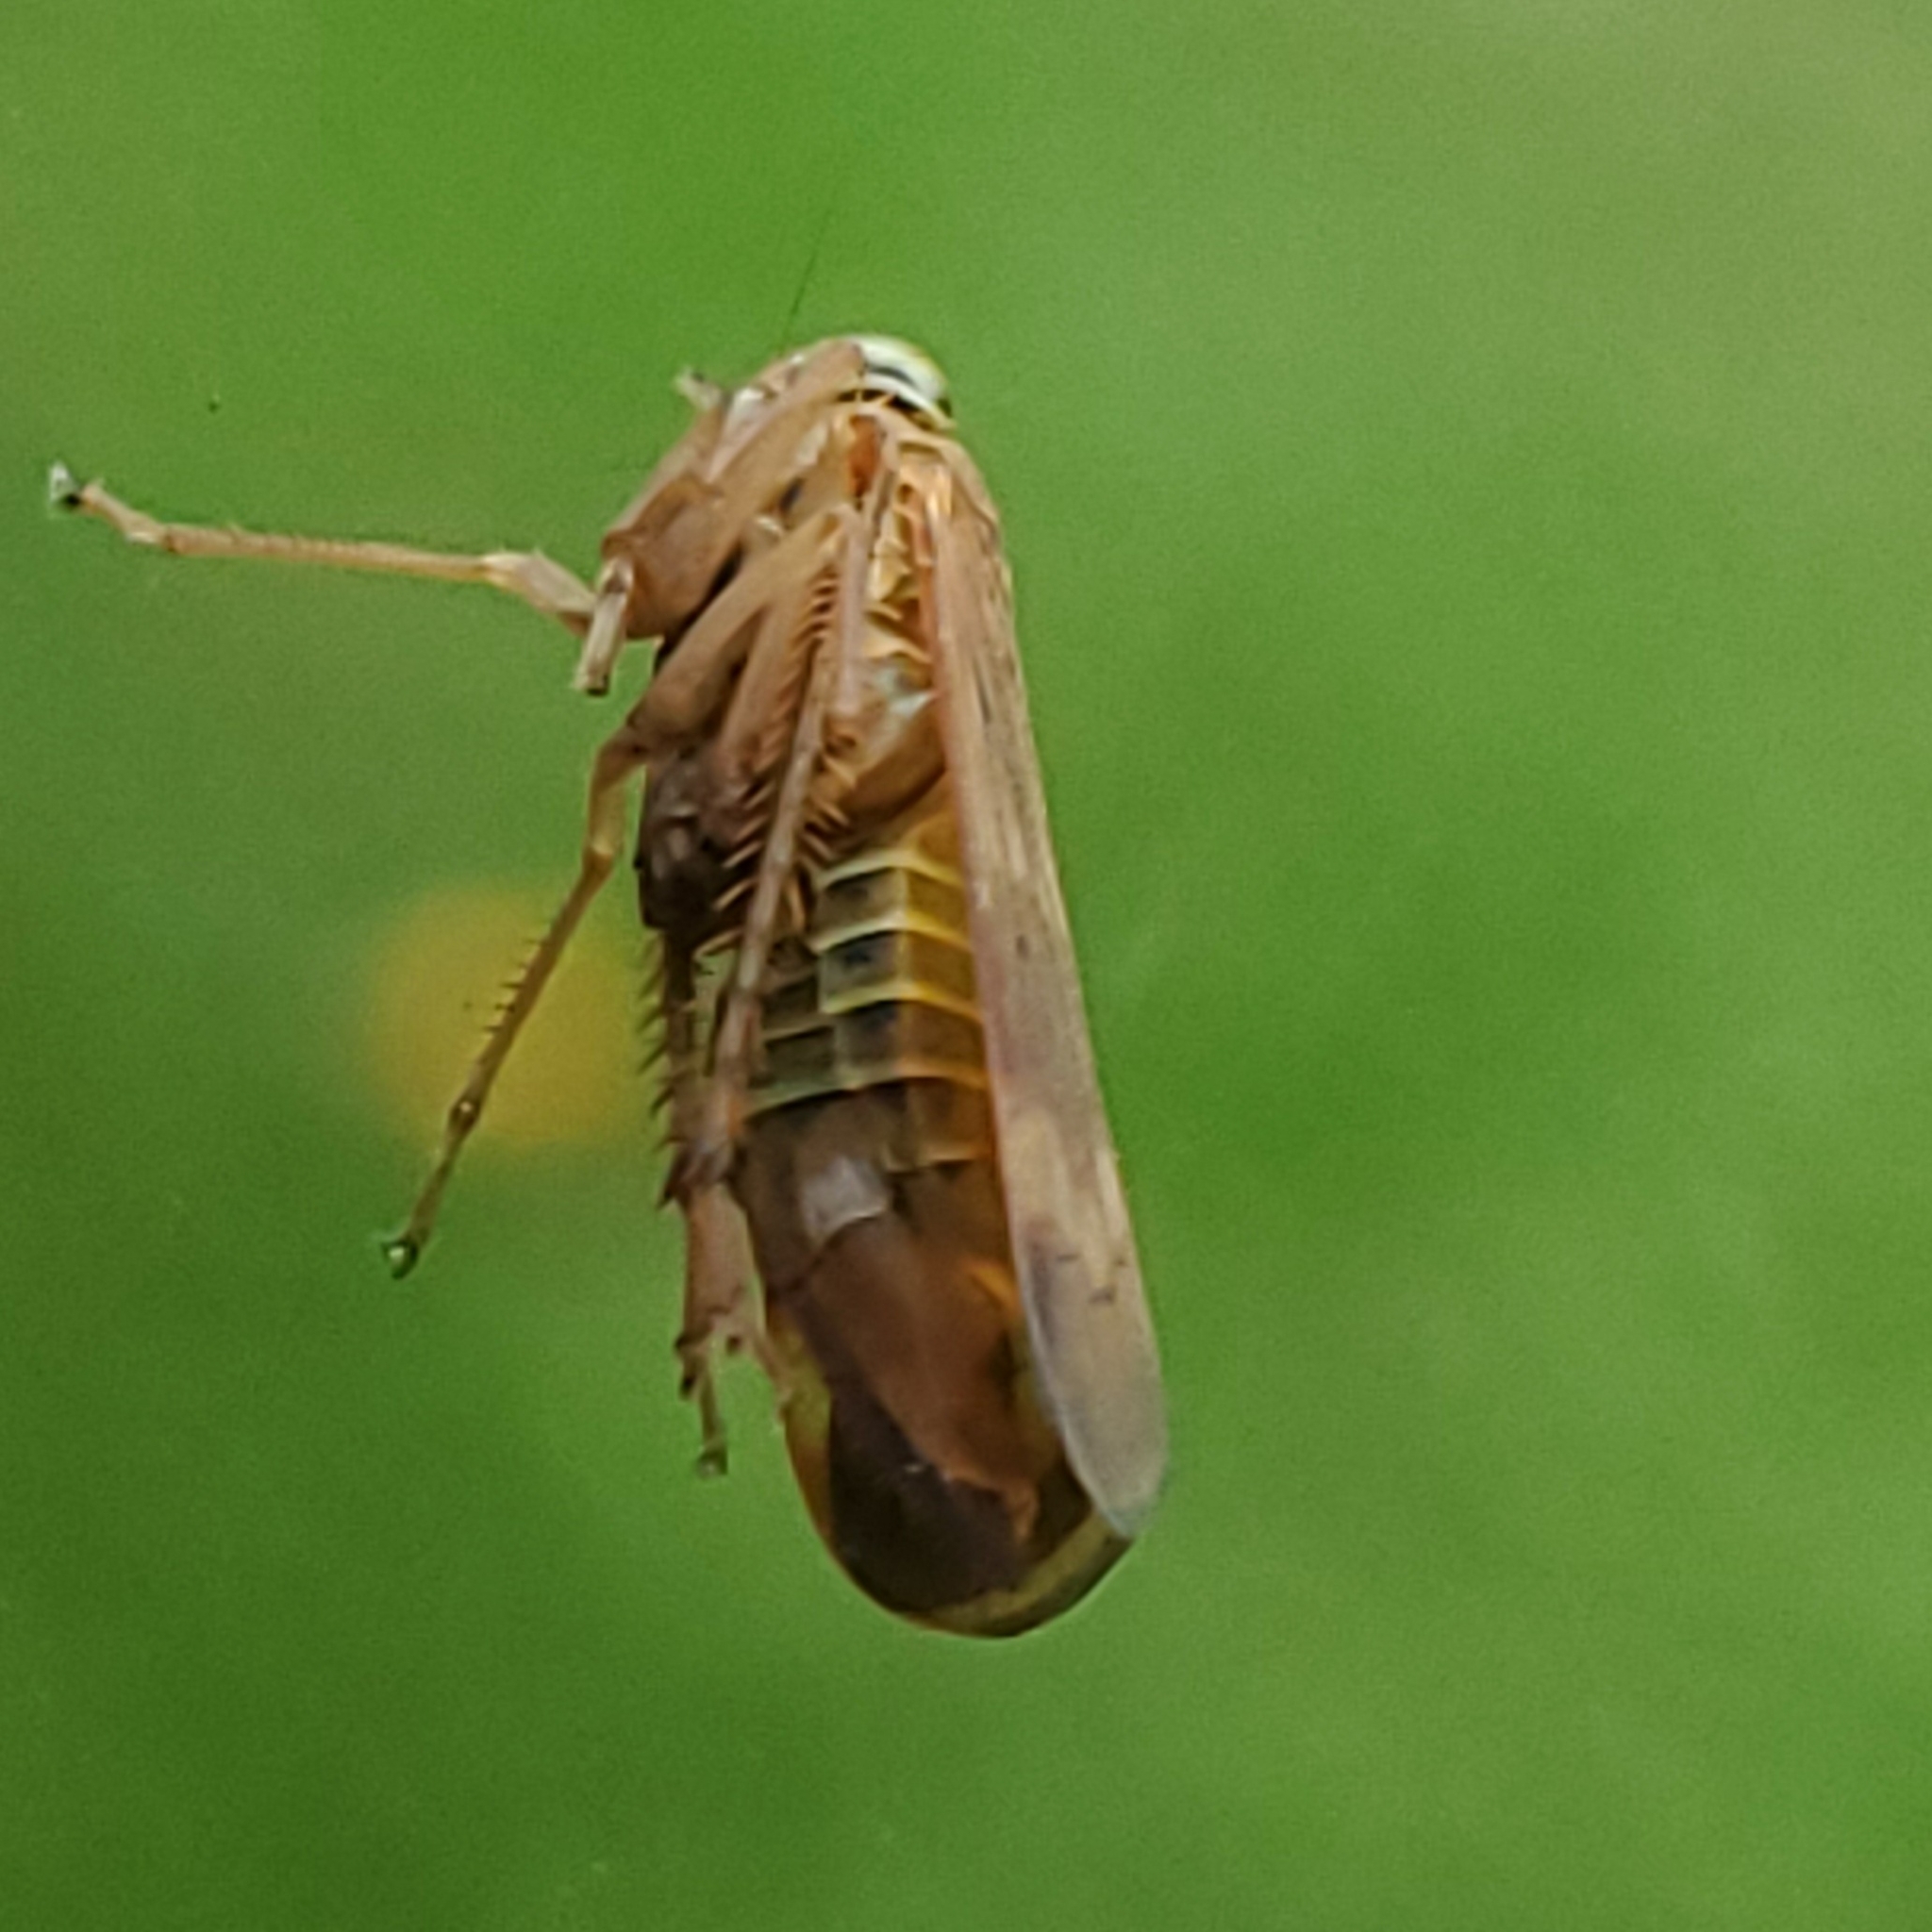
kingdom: Animalia
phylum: Arthropoda
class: Insecta
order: Hemiptera
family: Cicadellidae
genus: Jikradia
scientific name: Jikradia olitoria
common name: Coppery leafhopper
